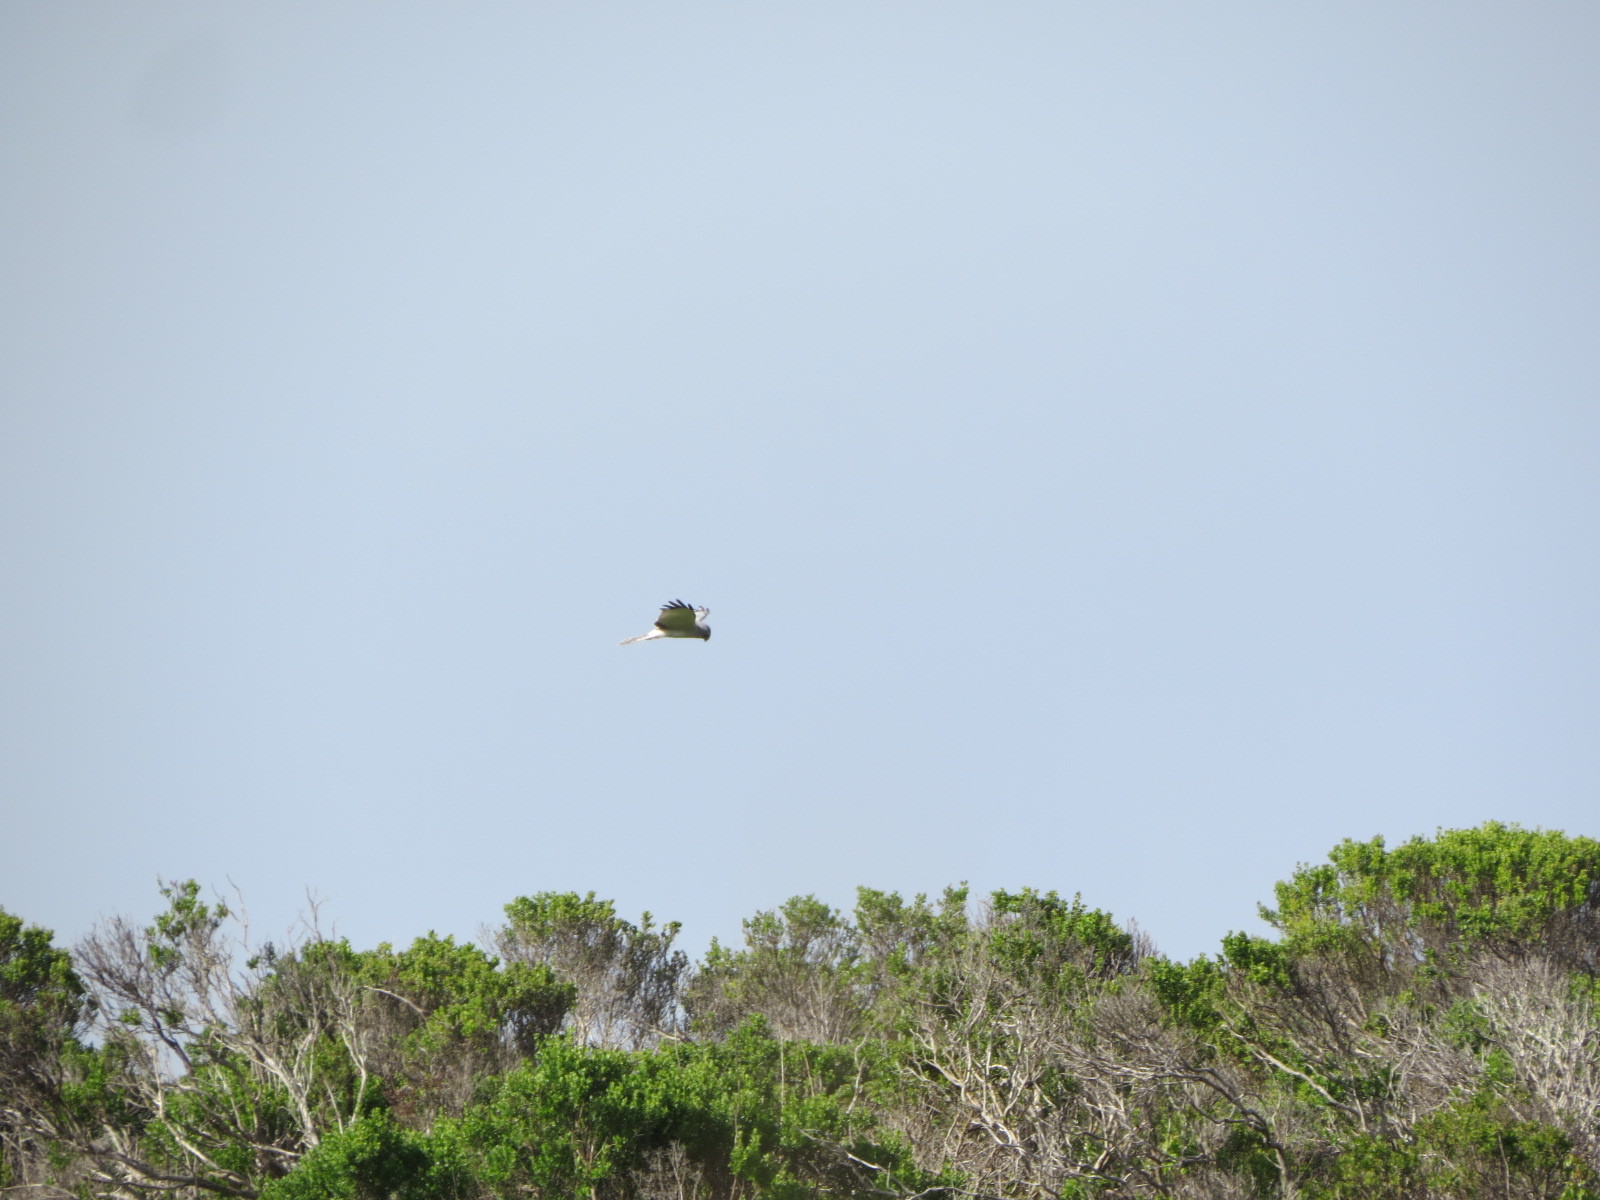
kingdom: Animalia
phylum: Chordata
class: Aves
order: Accipitriformes
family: Accipitridae
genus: Circus
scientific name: Circus cyaneus
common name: Hen harrier
